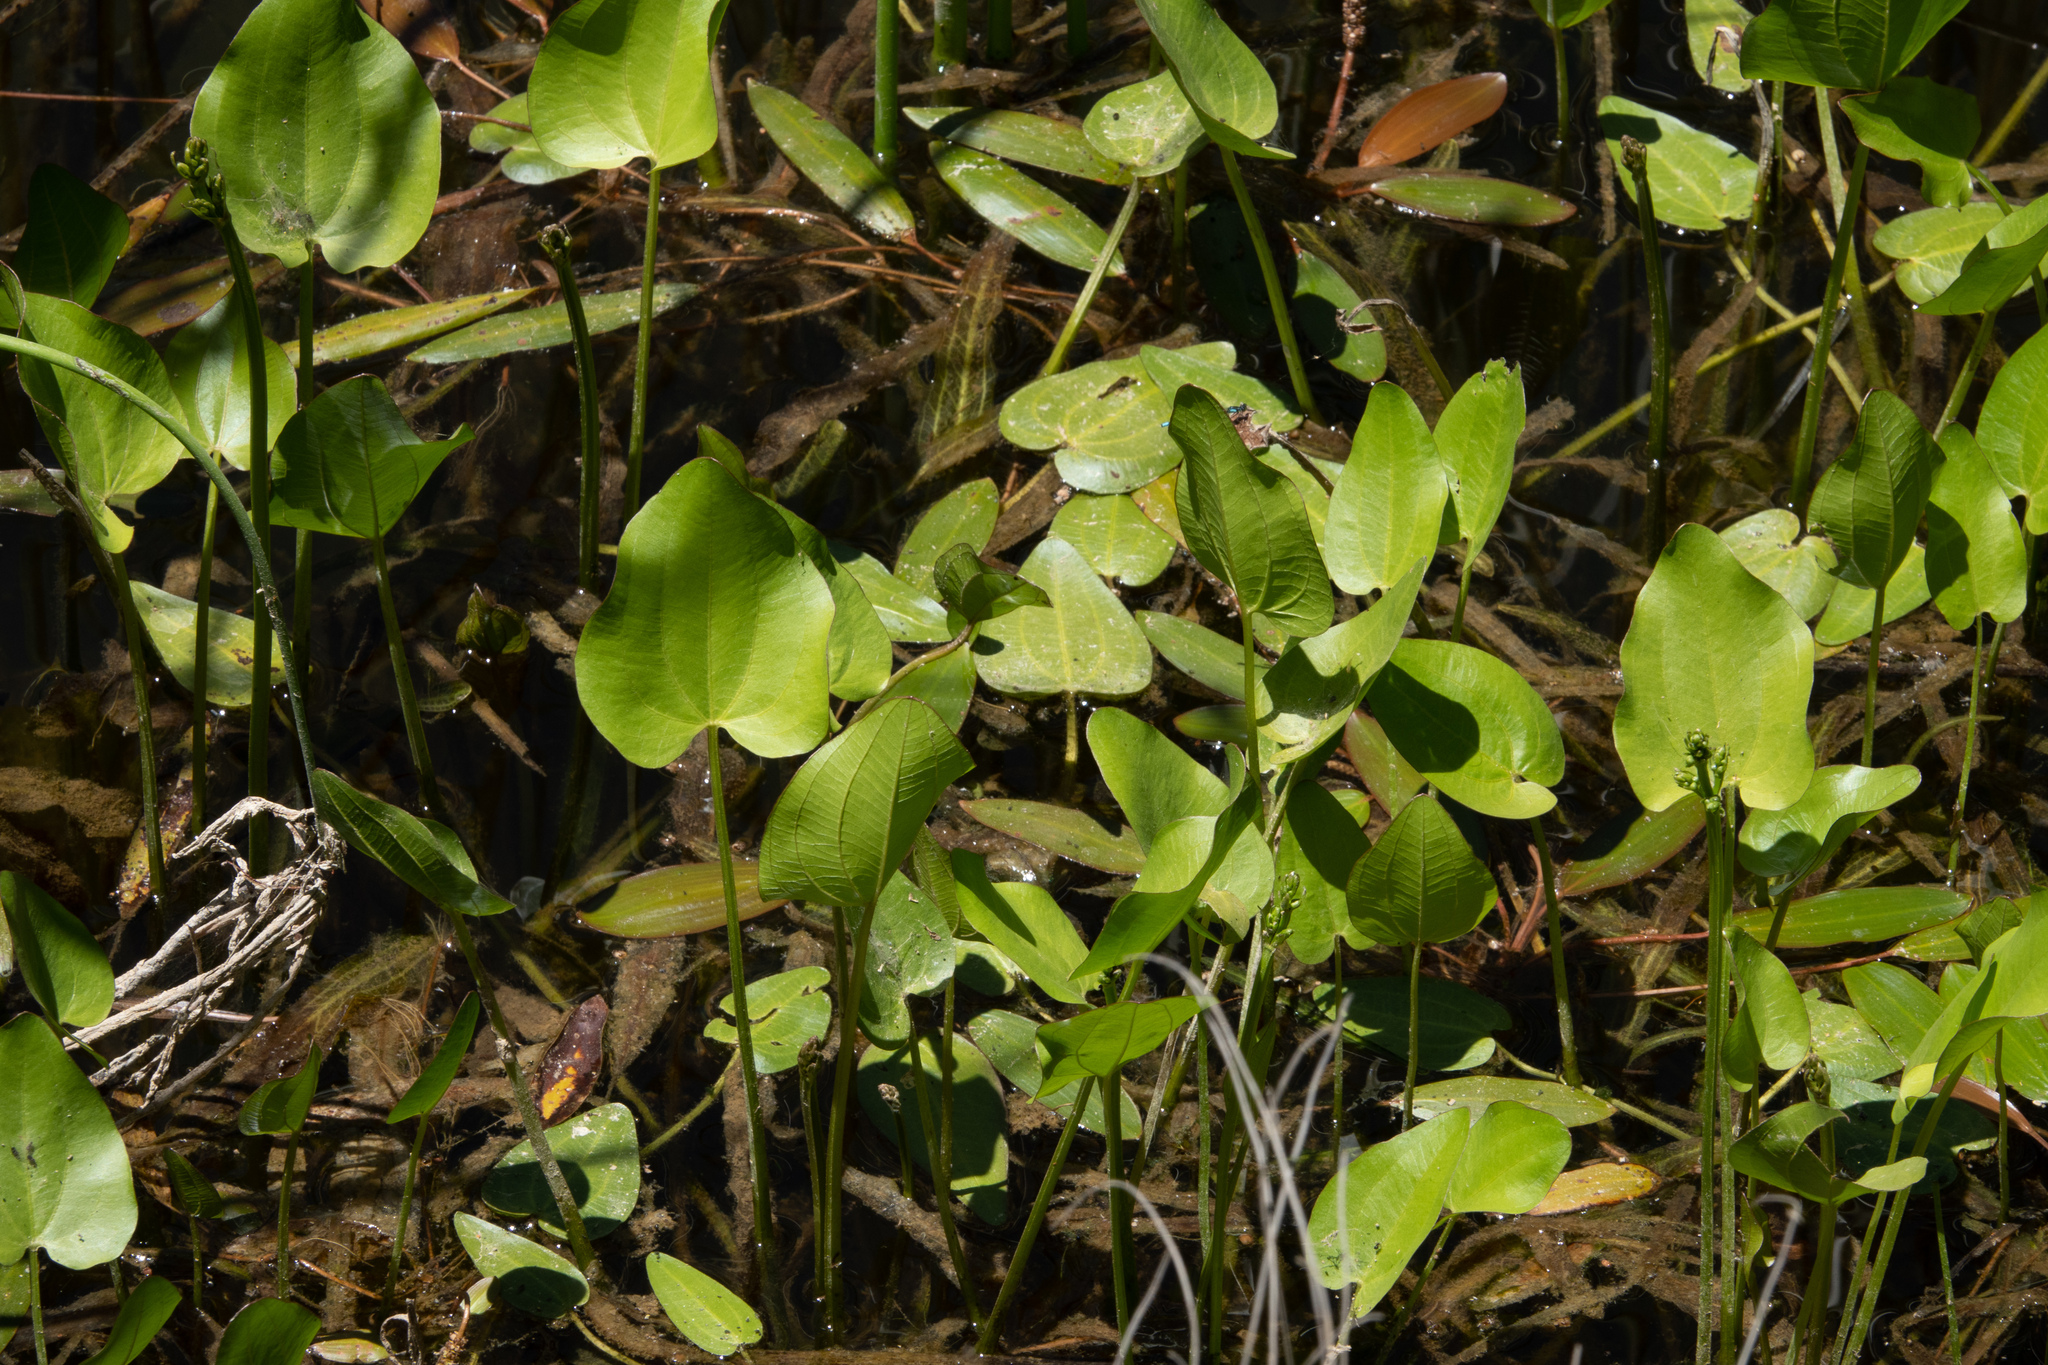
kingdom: Plantae
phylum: Tracheophyta
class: Liliopsida
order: Alismatales
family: Alismataceae
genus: Echinodorus
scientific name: Echinodorus berteroi
